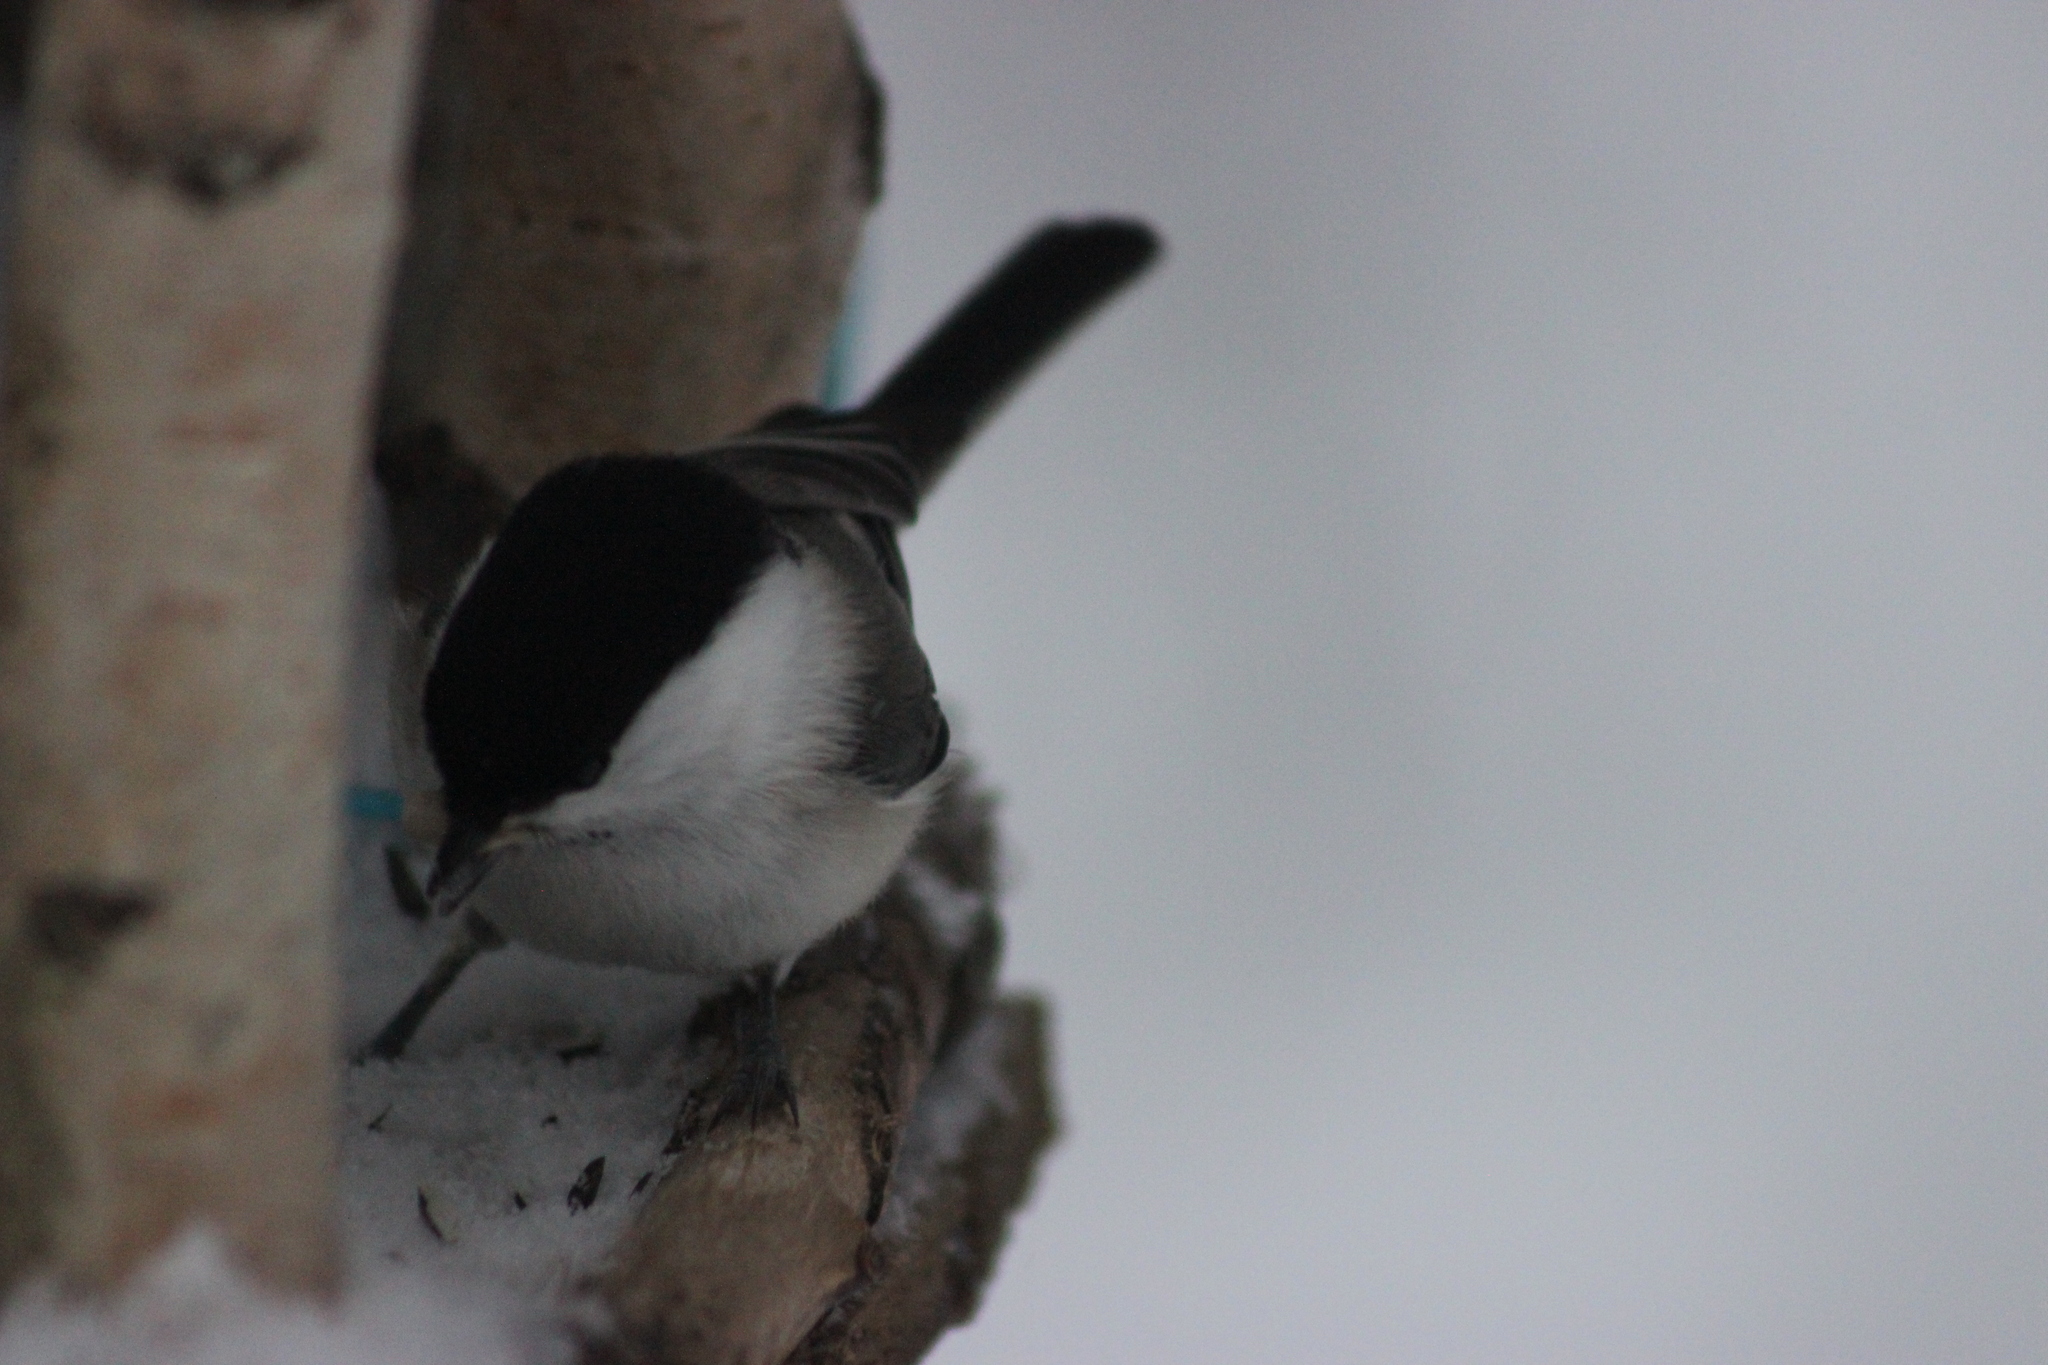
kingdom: Animalia
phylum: Chordata
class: Aves
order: Passeriformes
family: Paridae
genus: Poecile
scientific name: Poecile montanus
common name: Willow tit
